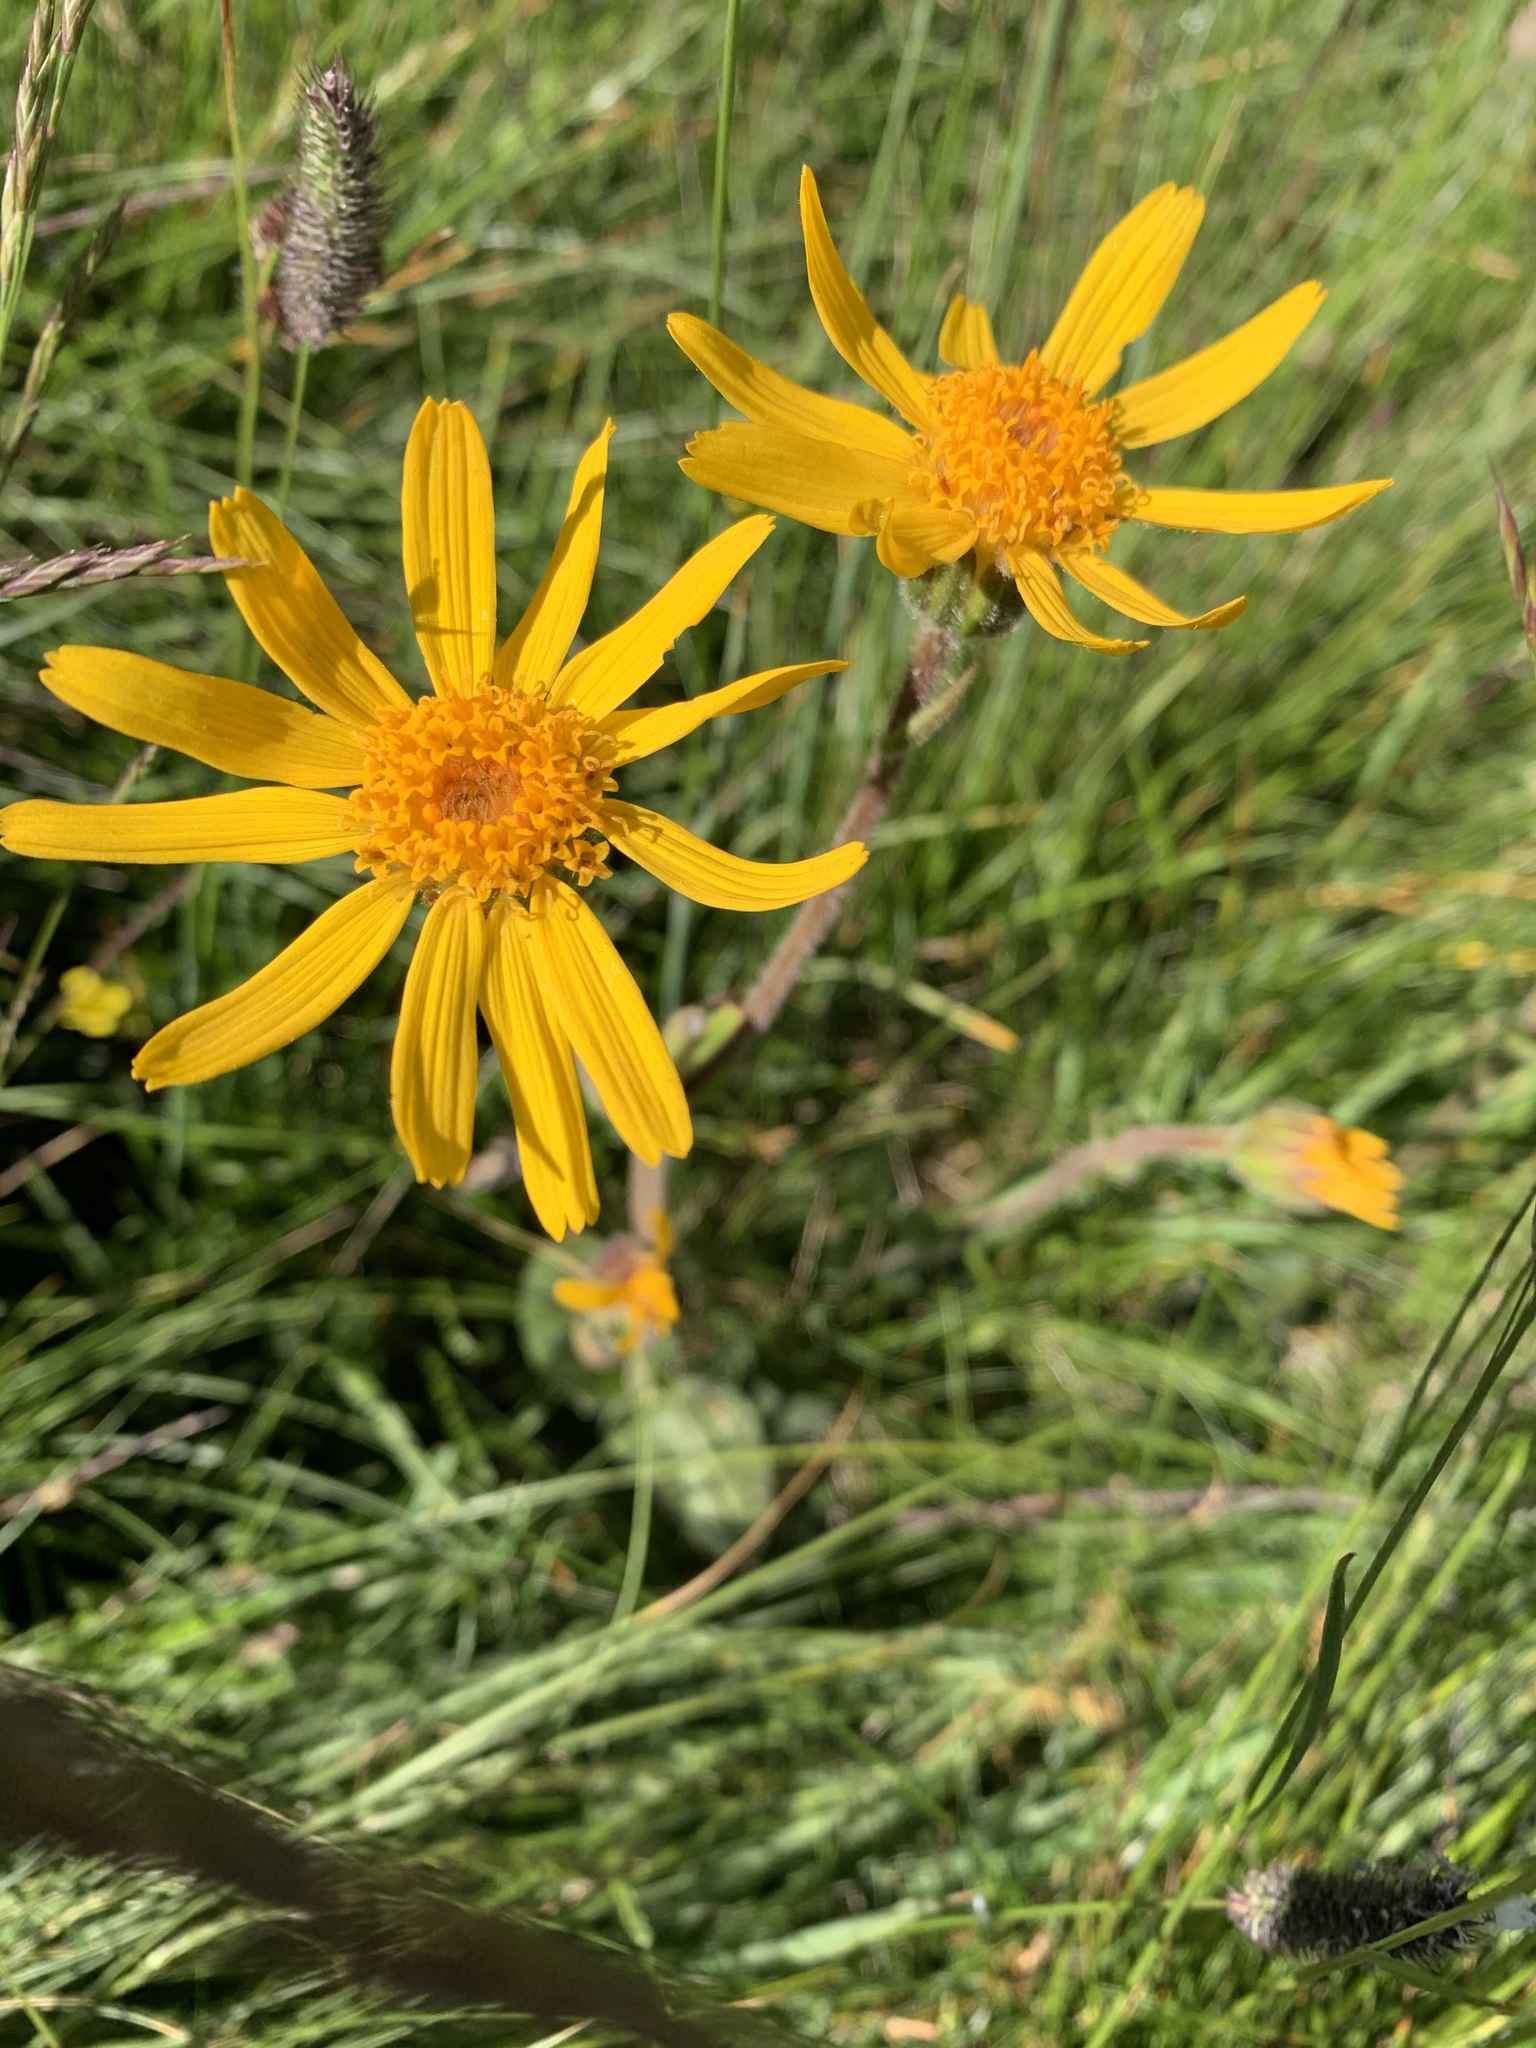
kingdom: Plantae
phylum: Tracheophyta
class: Magnoliopsida
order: Asterales
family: Asteraceae
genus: Arnica
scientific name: Arnica montana
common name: Leopard's bane
